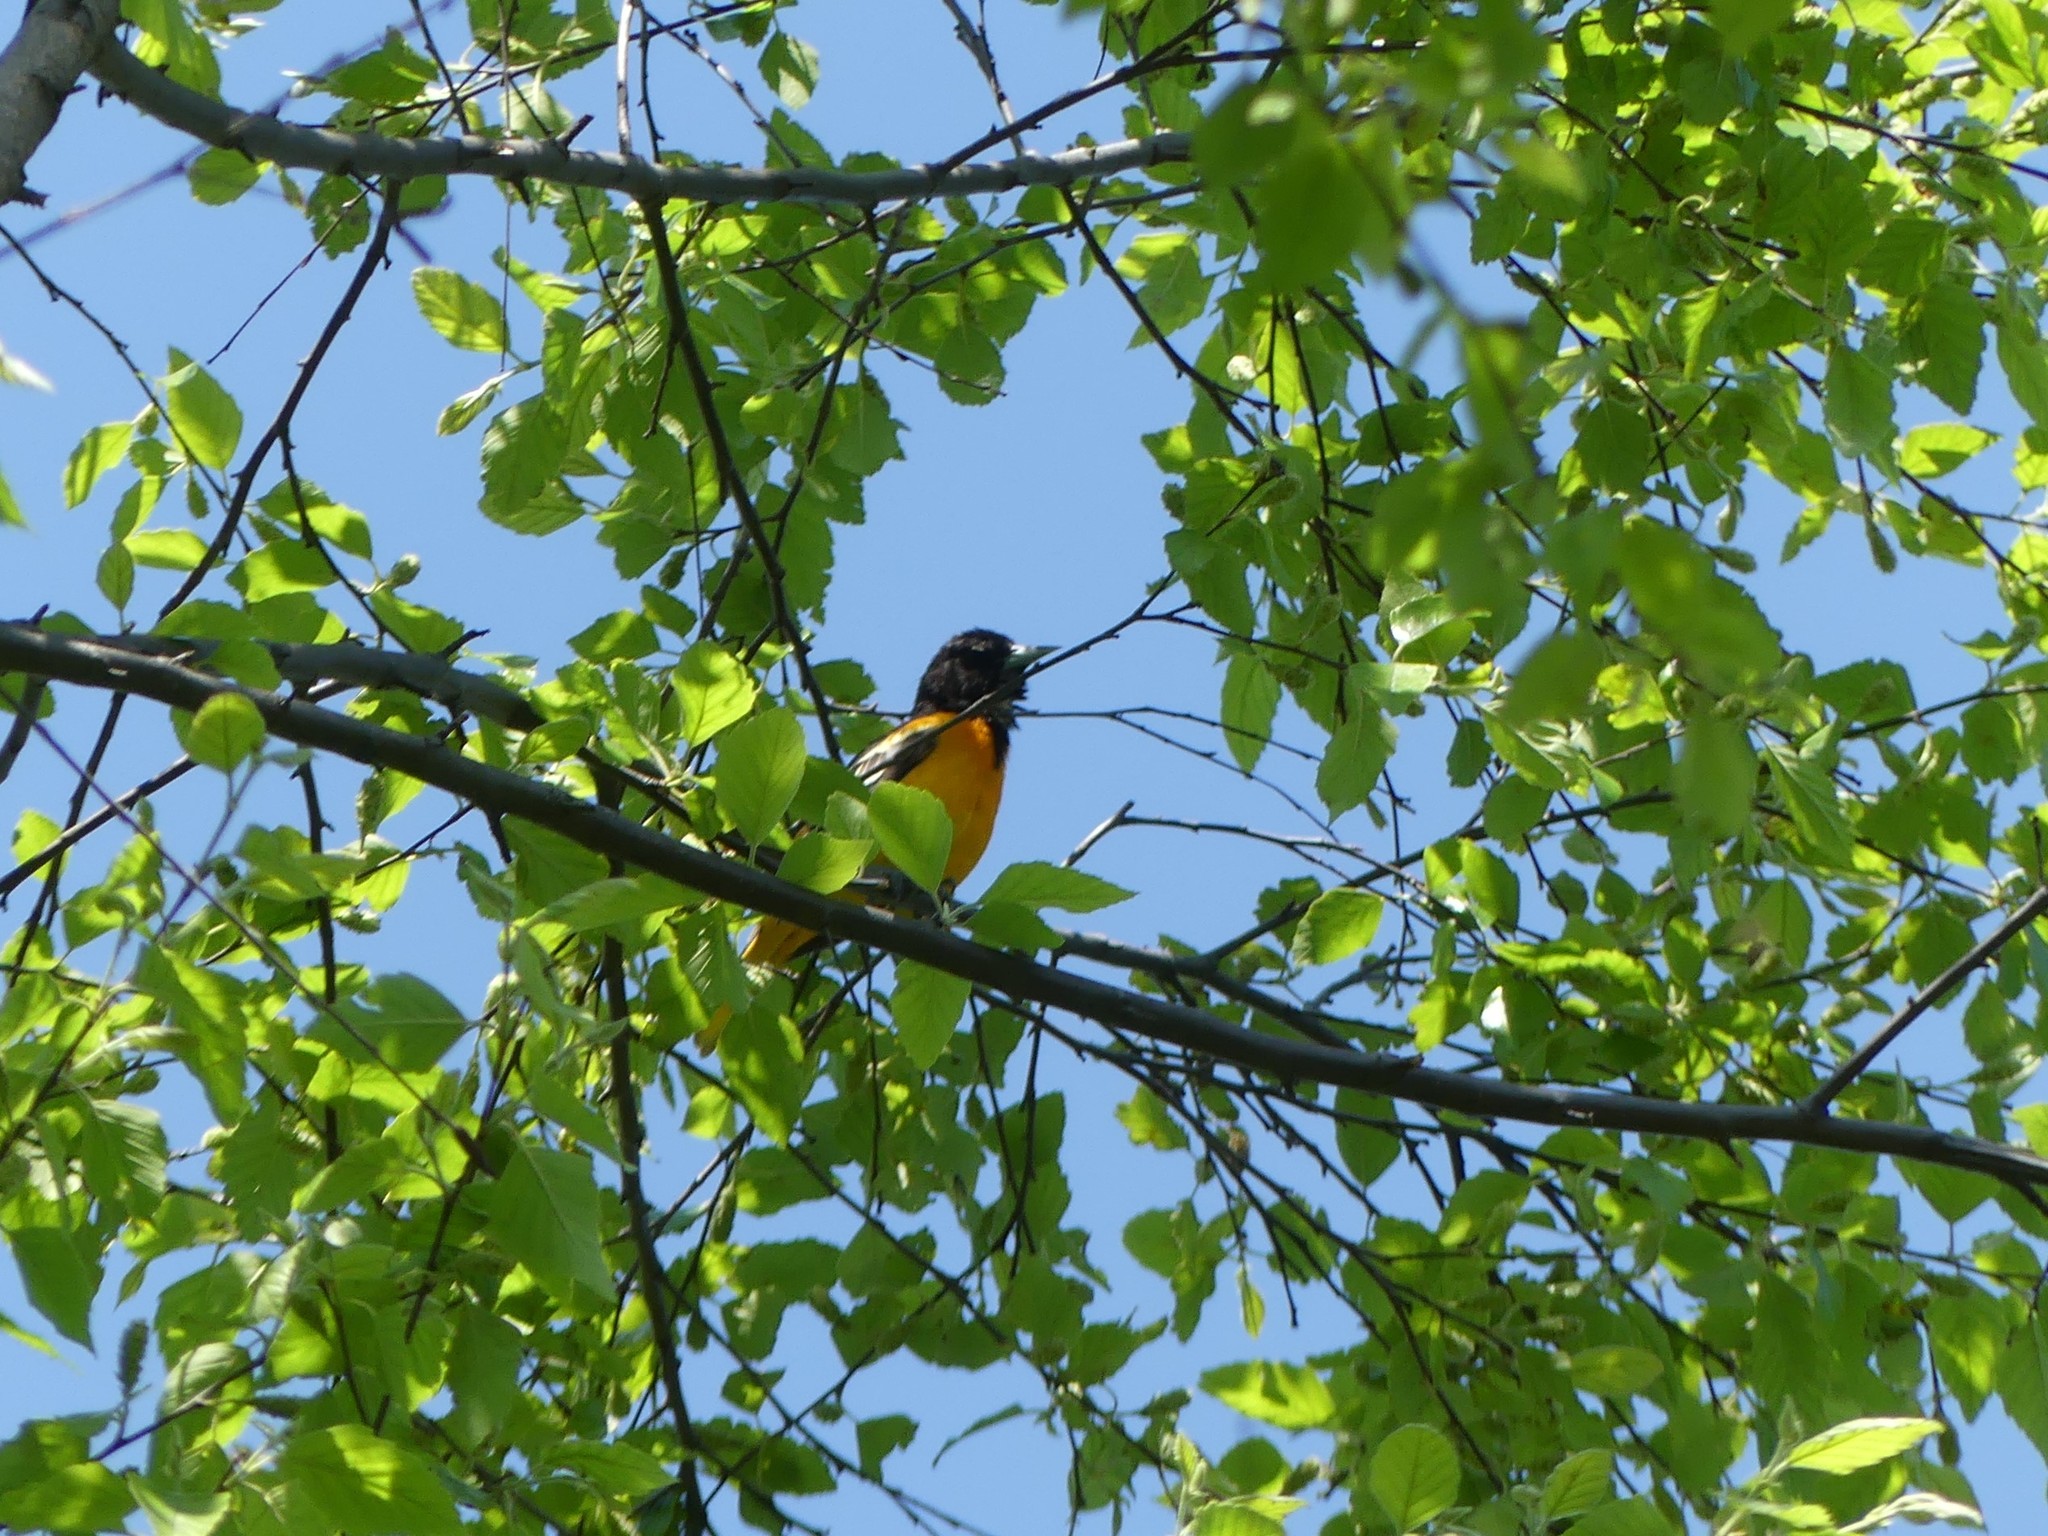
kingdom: Animalia
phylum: Chordata
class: Aves
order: Passeriformes
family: Icteridae
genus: Icterus
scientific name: Icterus galbula
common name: Baltimore oriole
